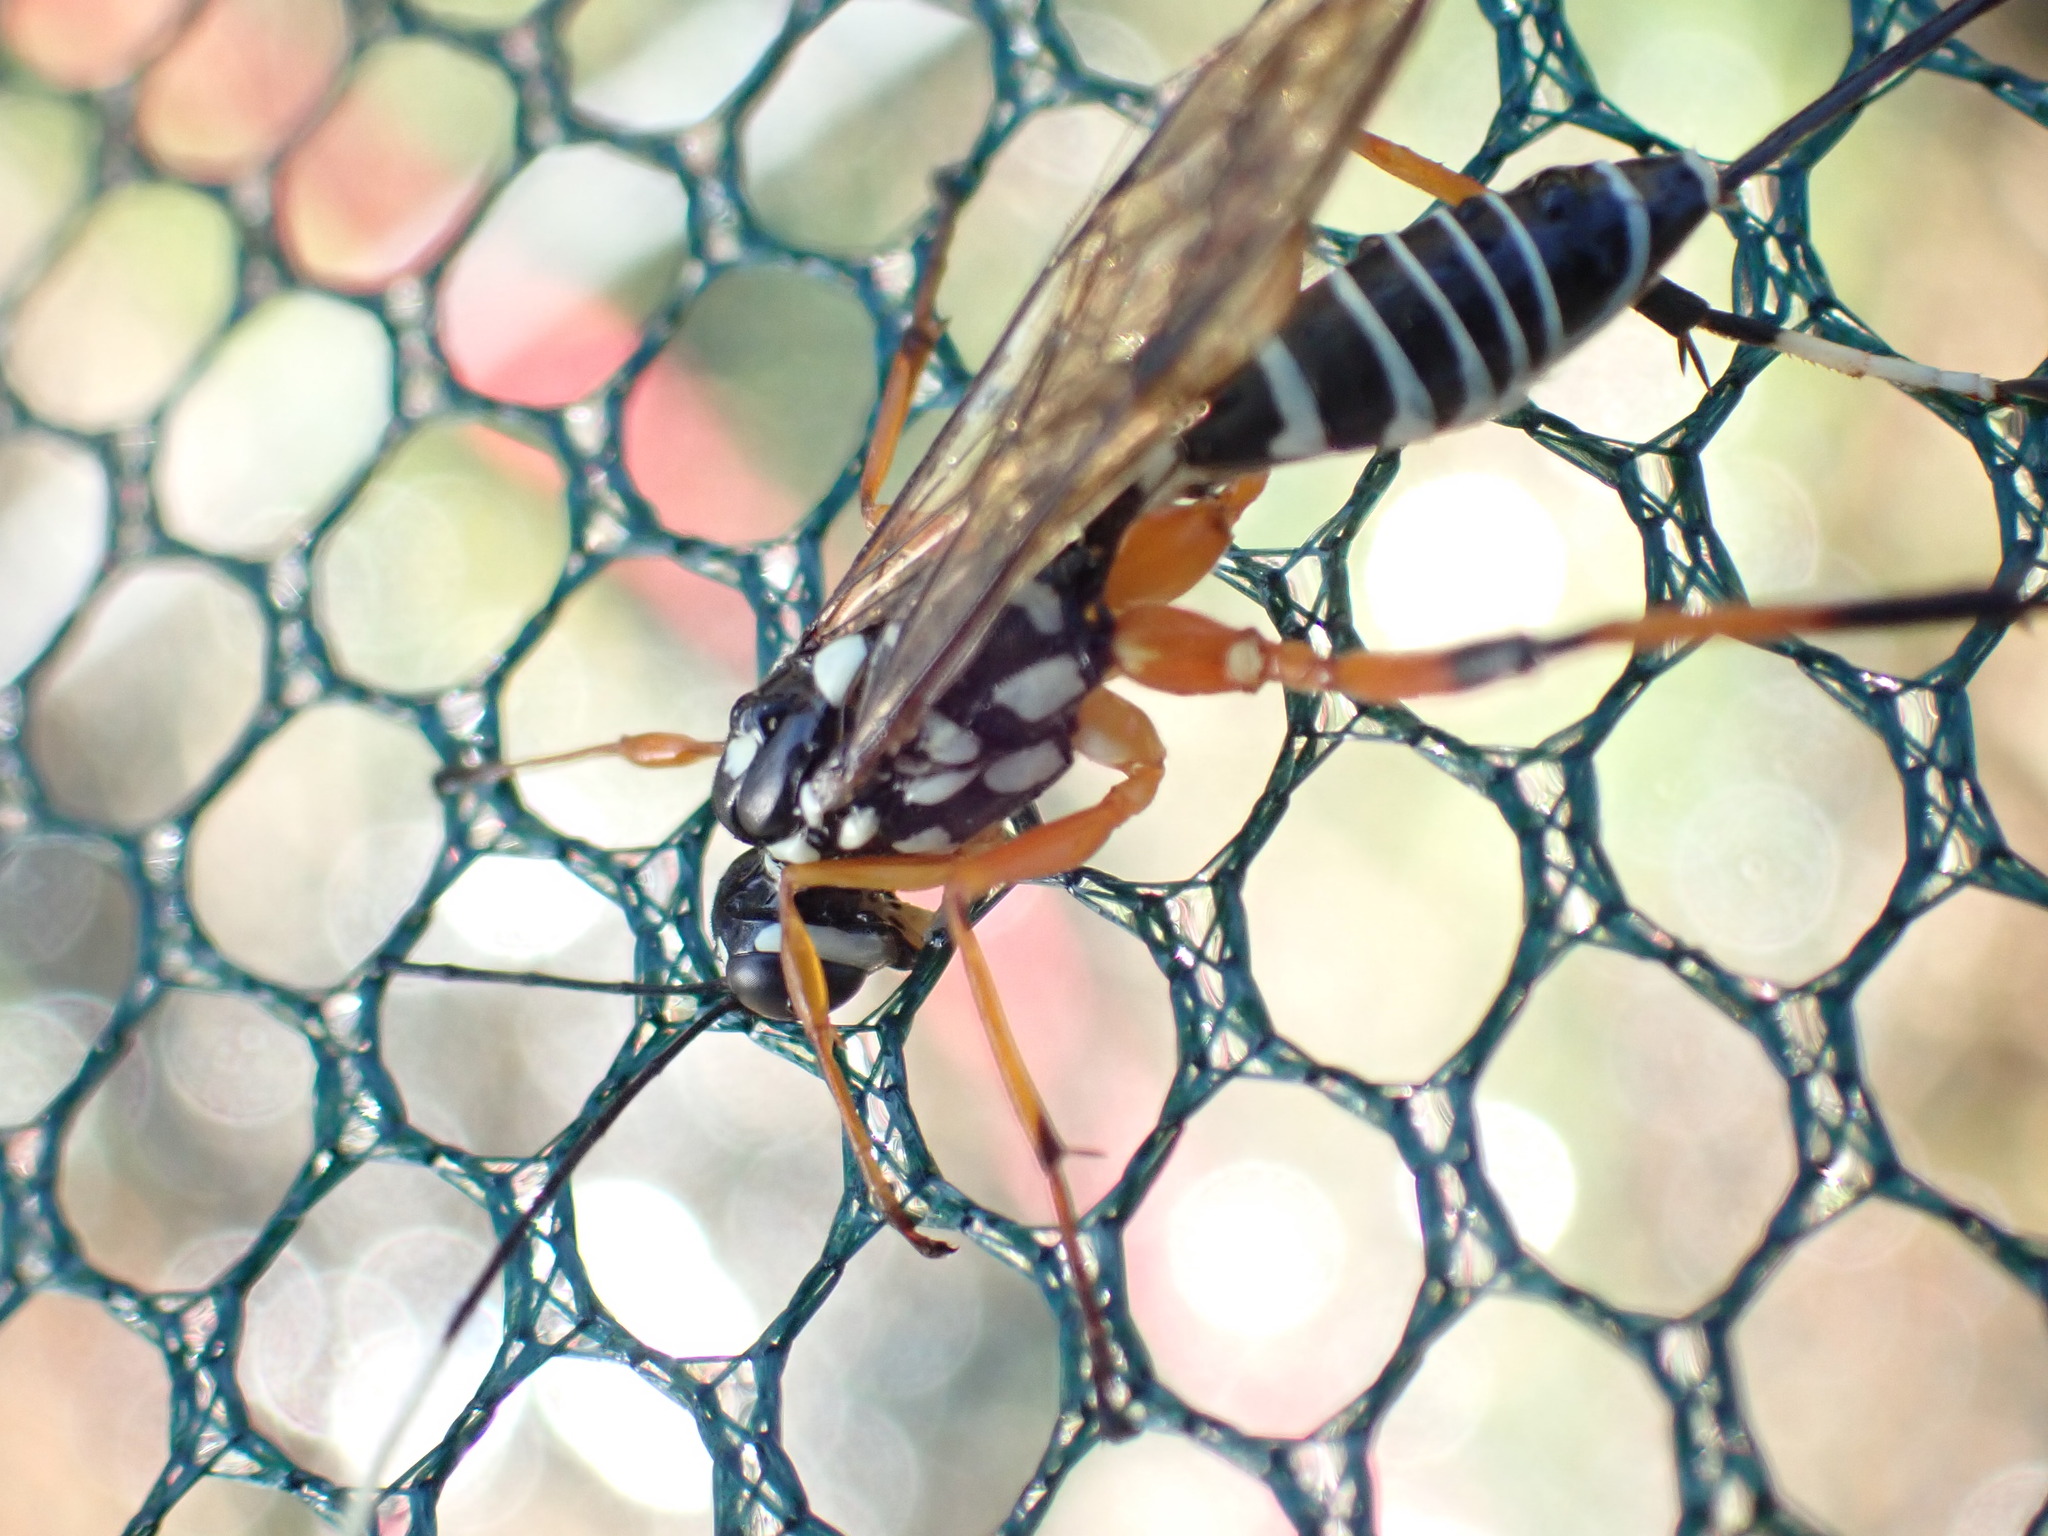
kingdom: Animalia
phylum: Arthropoda
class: Insecta
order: Hymenoptera
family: Ichneumonidae
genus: Xanthocryptus
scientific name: Xanthocryptus novozealandicus
